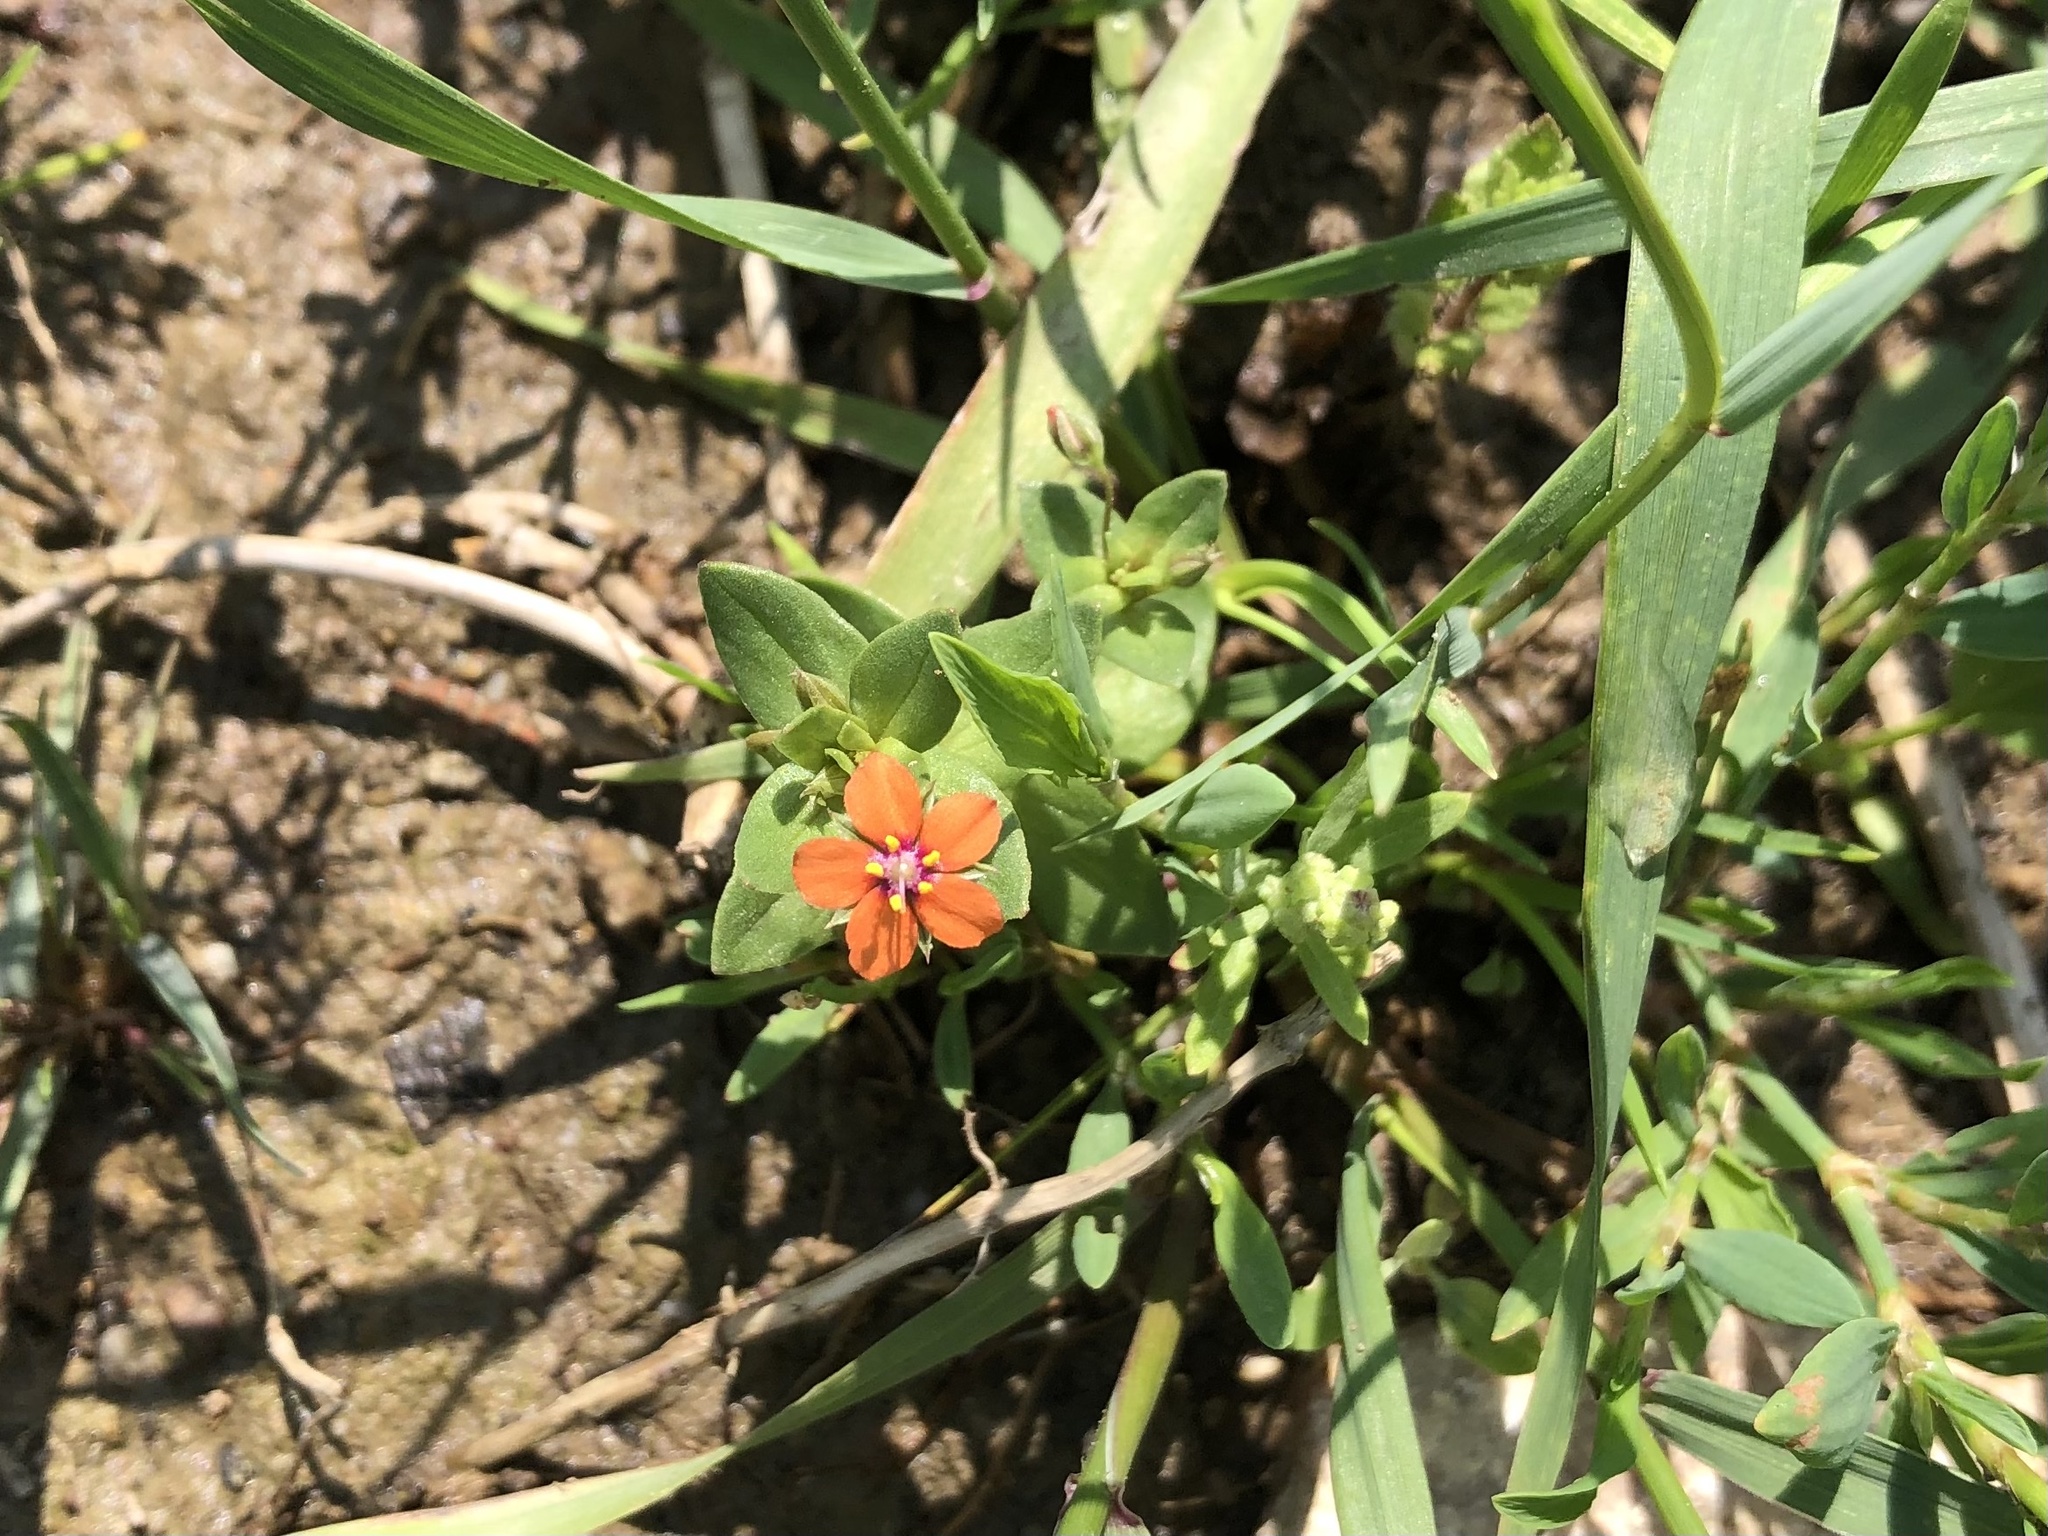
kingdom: Plantae
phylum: Tracheophyta
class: Magnoliopsida
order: Ericales
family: Primulaceae
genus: Lysimachia
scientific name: Lysimachia arvensis
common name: Scarlet pimpernel
